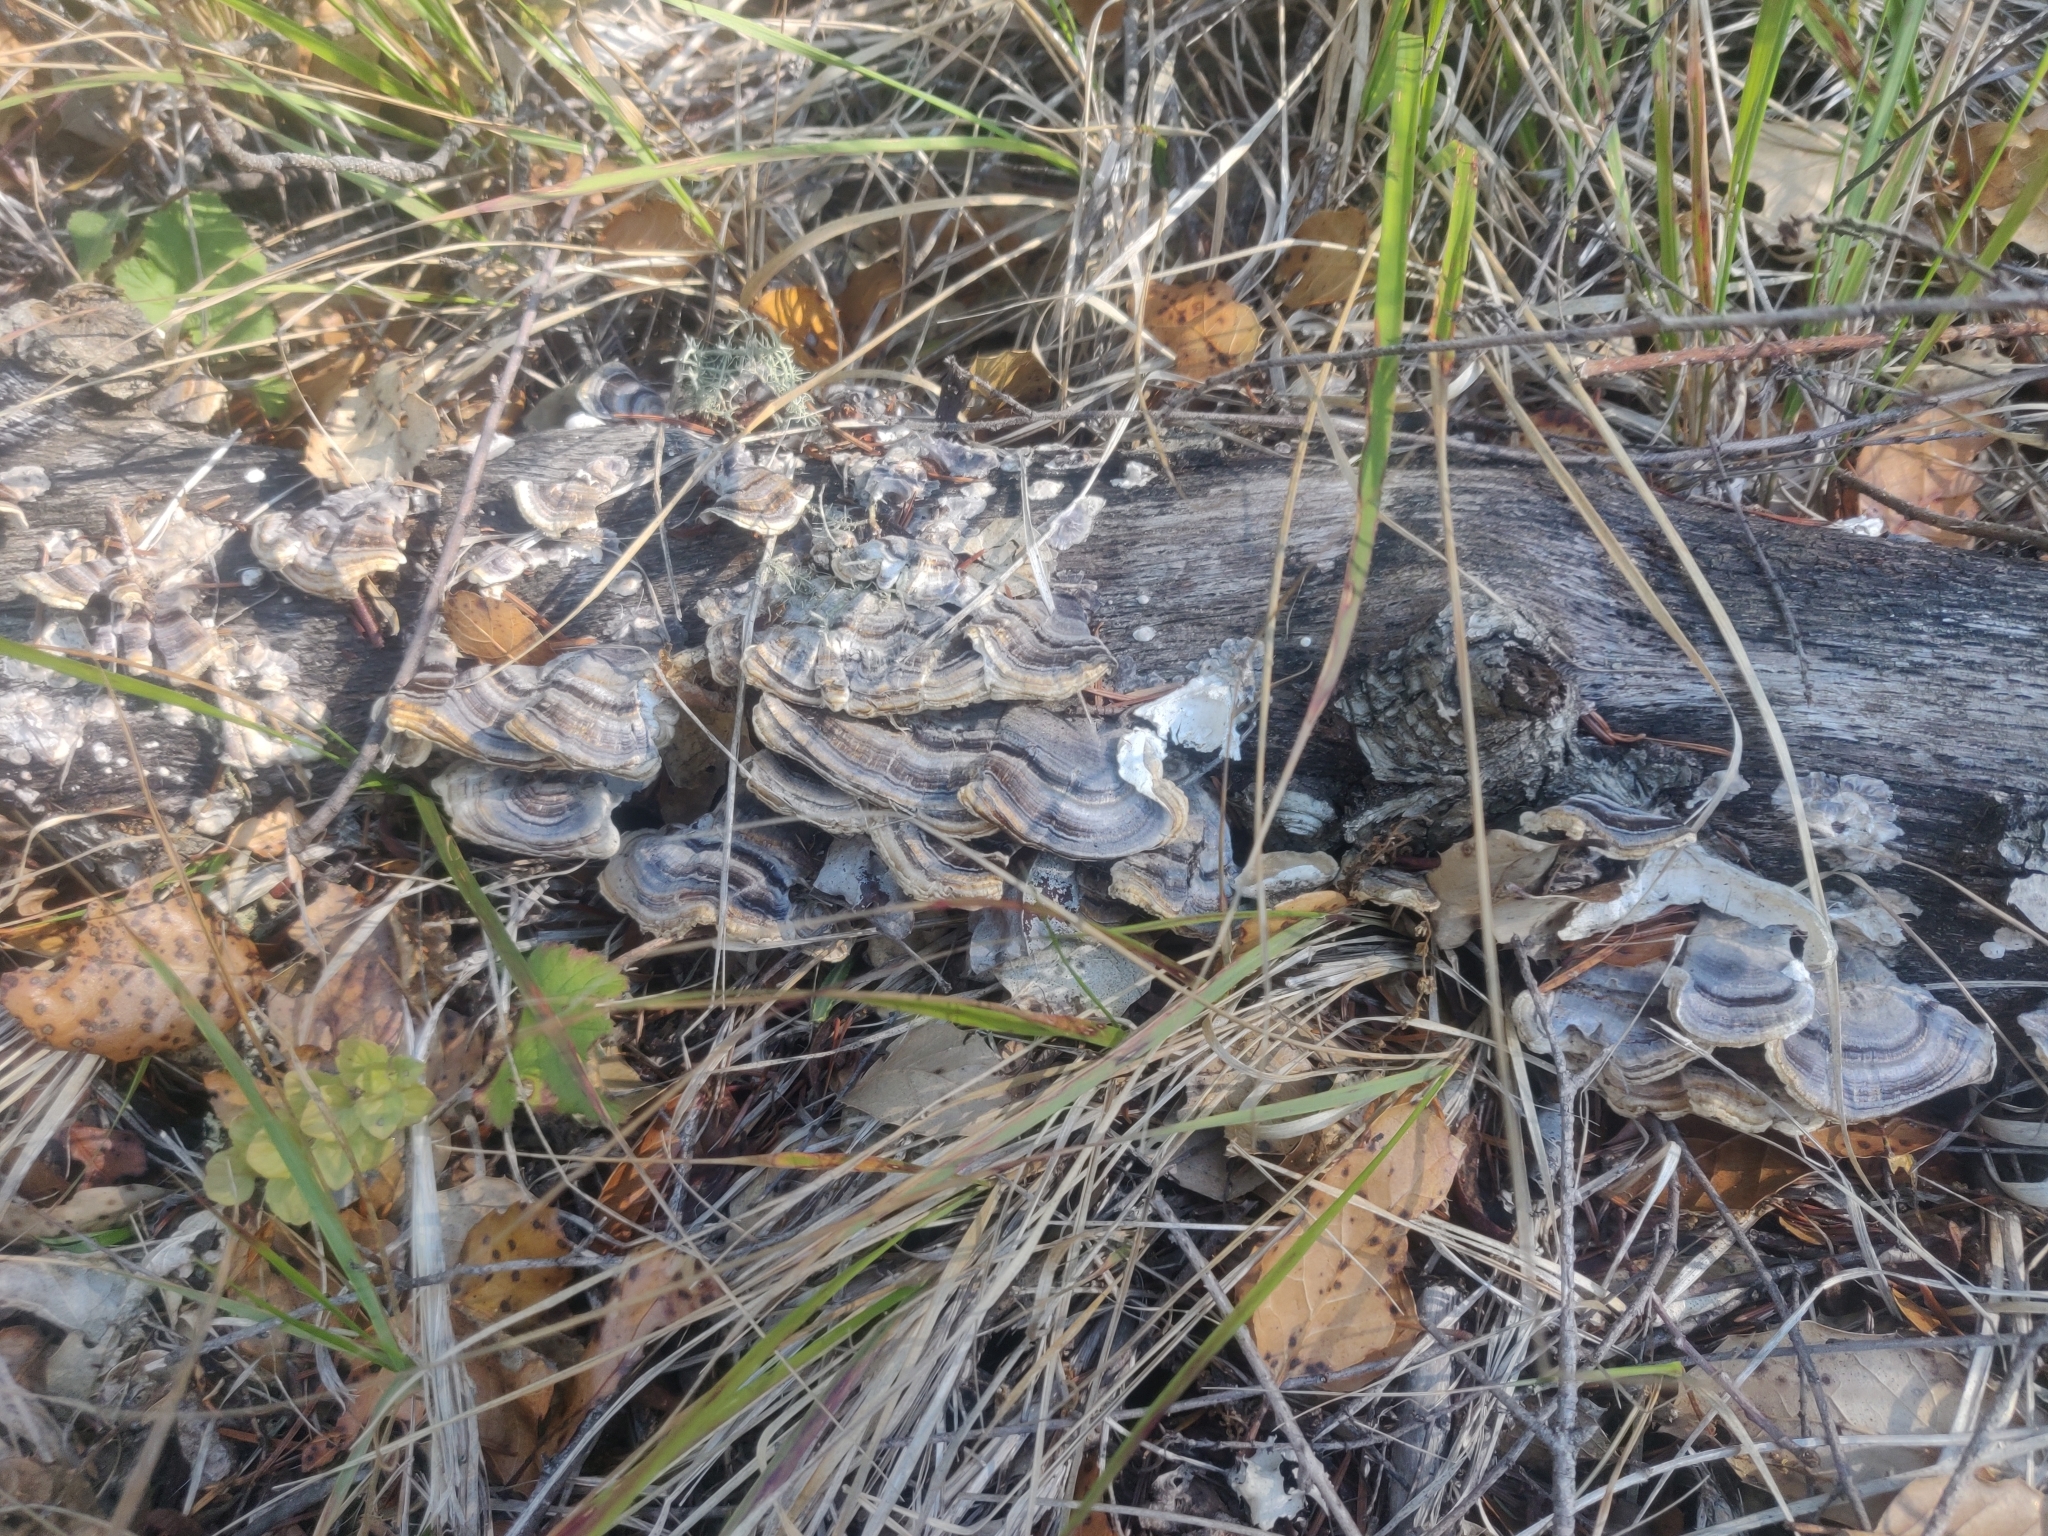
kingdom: Fungi
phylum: Basidiomycota
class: Agaricomycetes
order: Polyporales
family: Polyporaceae
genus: Trametes
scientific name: Trametes versicolor
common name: Turkeytail
